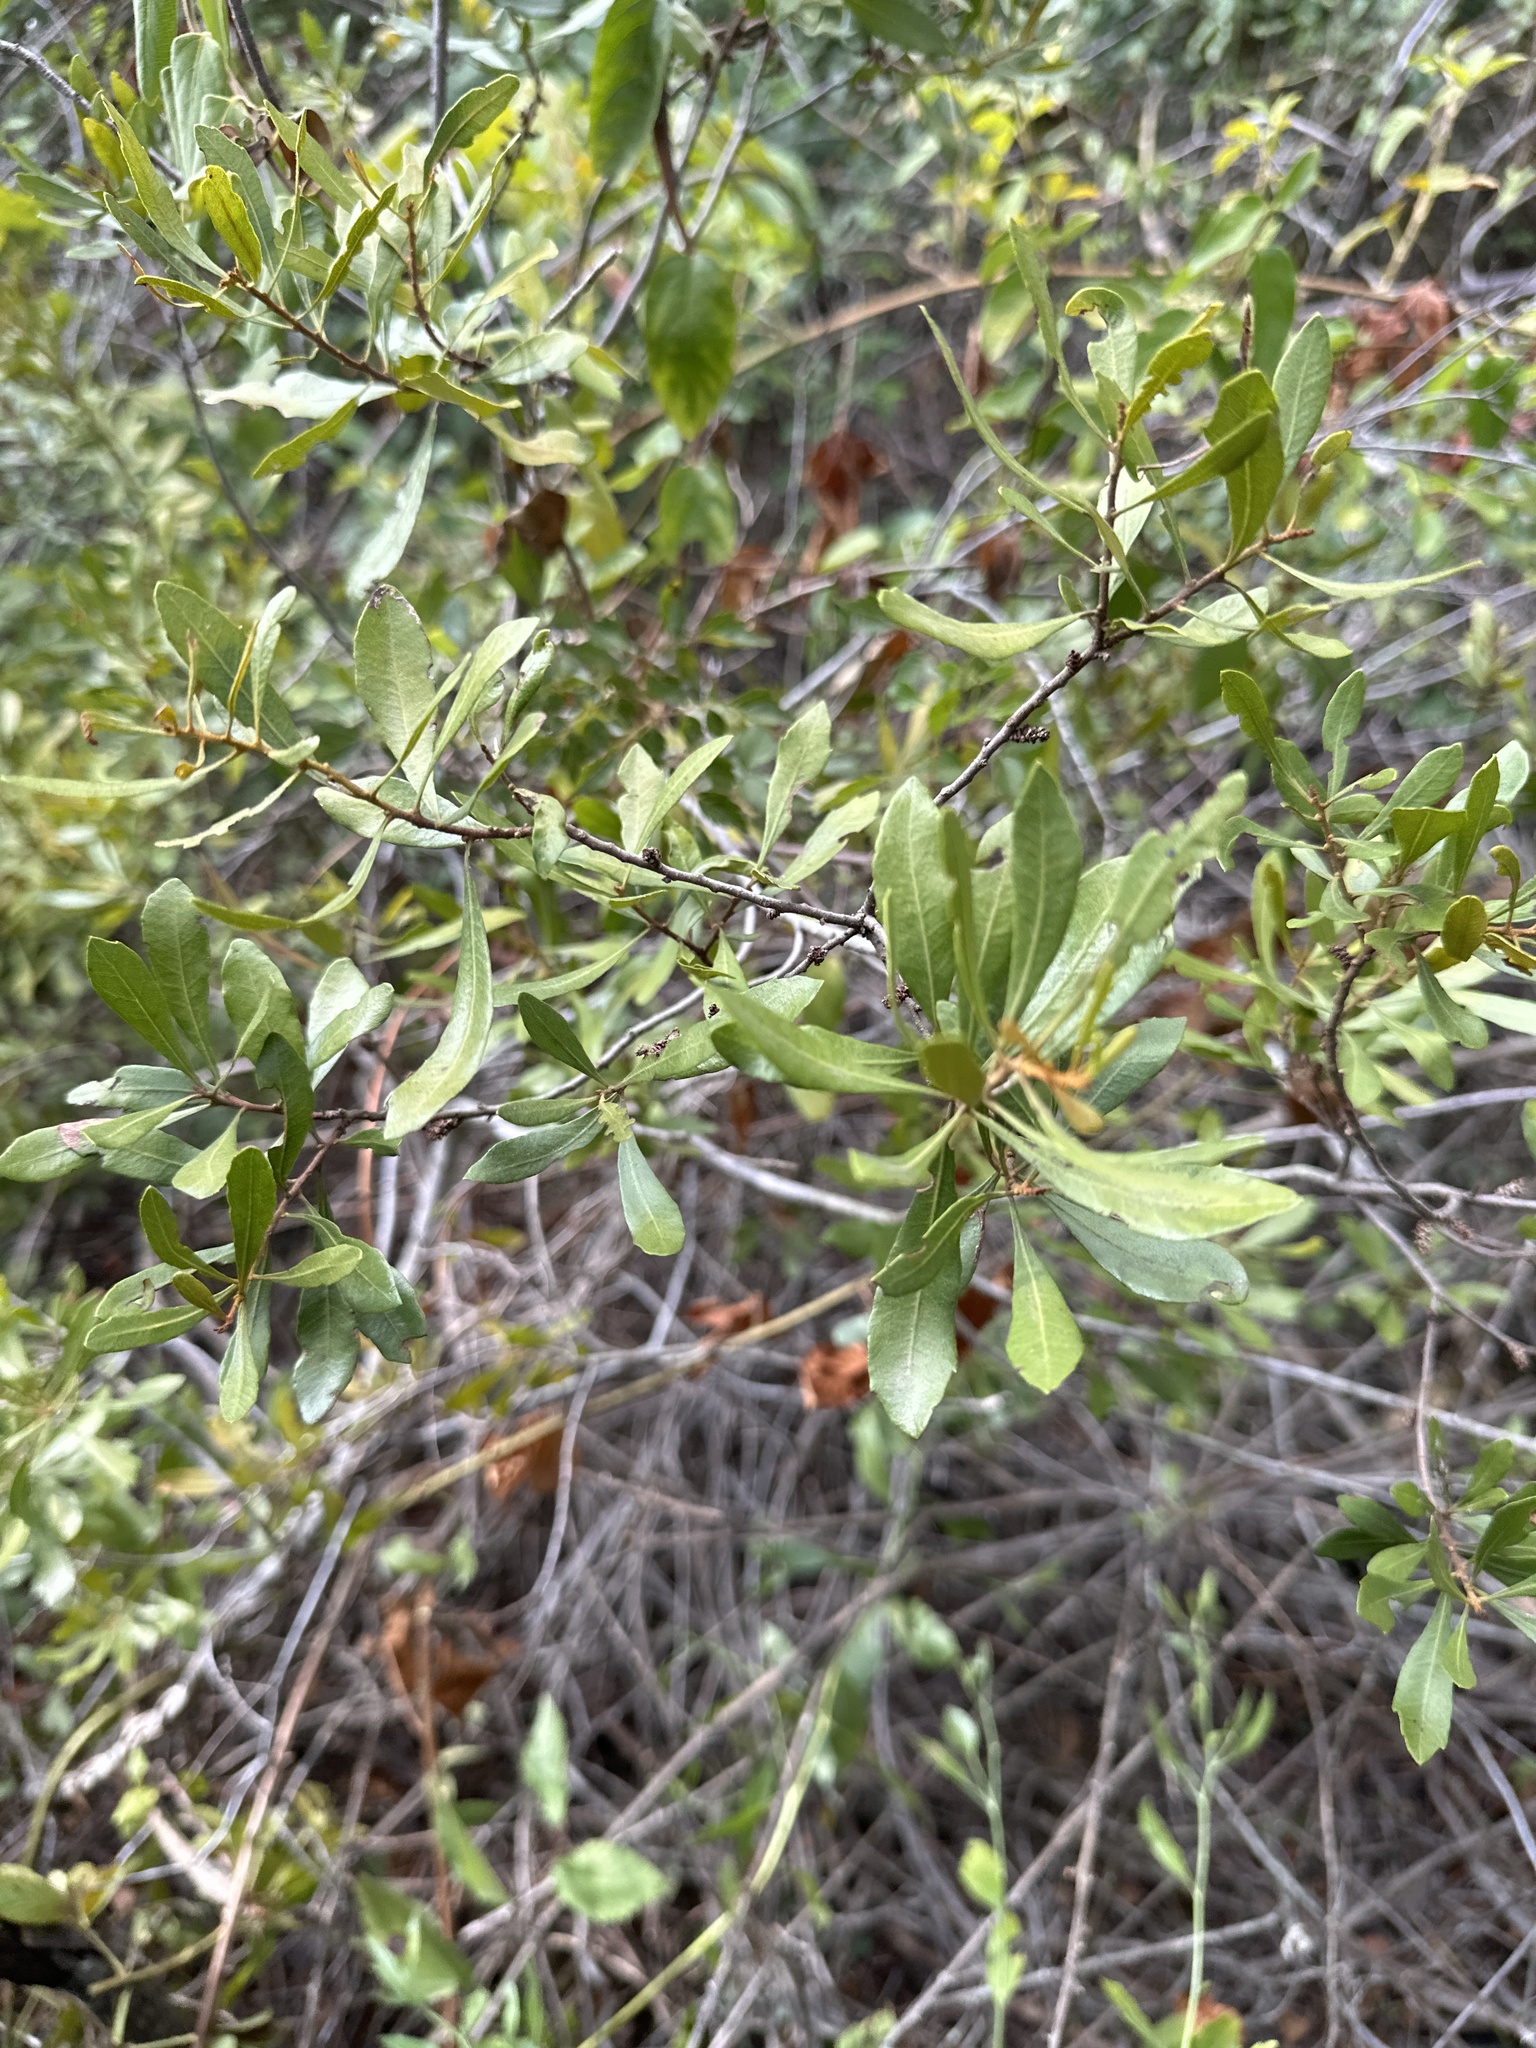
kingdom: Plantae
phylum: Tracheophyta
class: Magnoliopsida
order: Fagales
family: Myricaceae
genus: Morella
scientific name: Morella cerifera
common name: Wax myrtle
